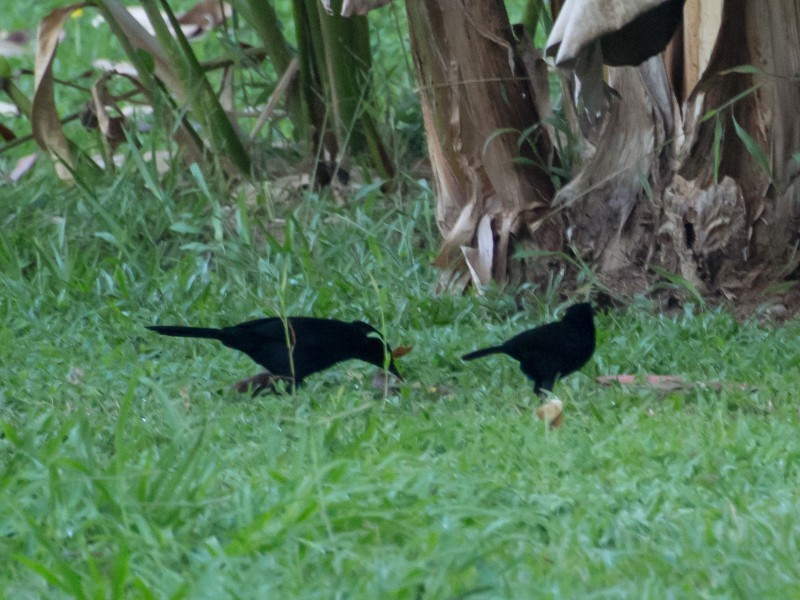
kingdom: Animalia
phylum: Chordata
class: Aves
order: Passeriformes
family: Icteridae
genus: Dives
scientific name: Dives dives
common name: Melodious blackbird
